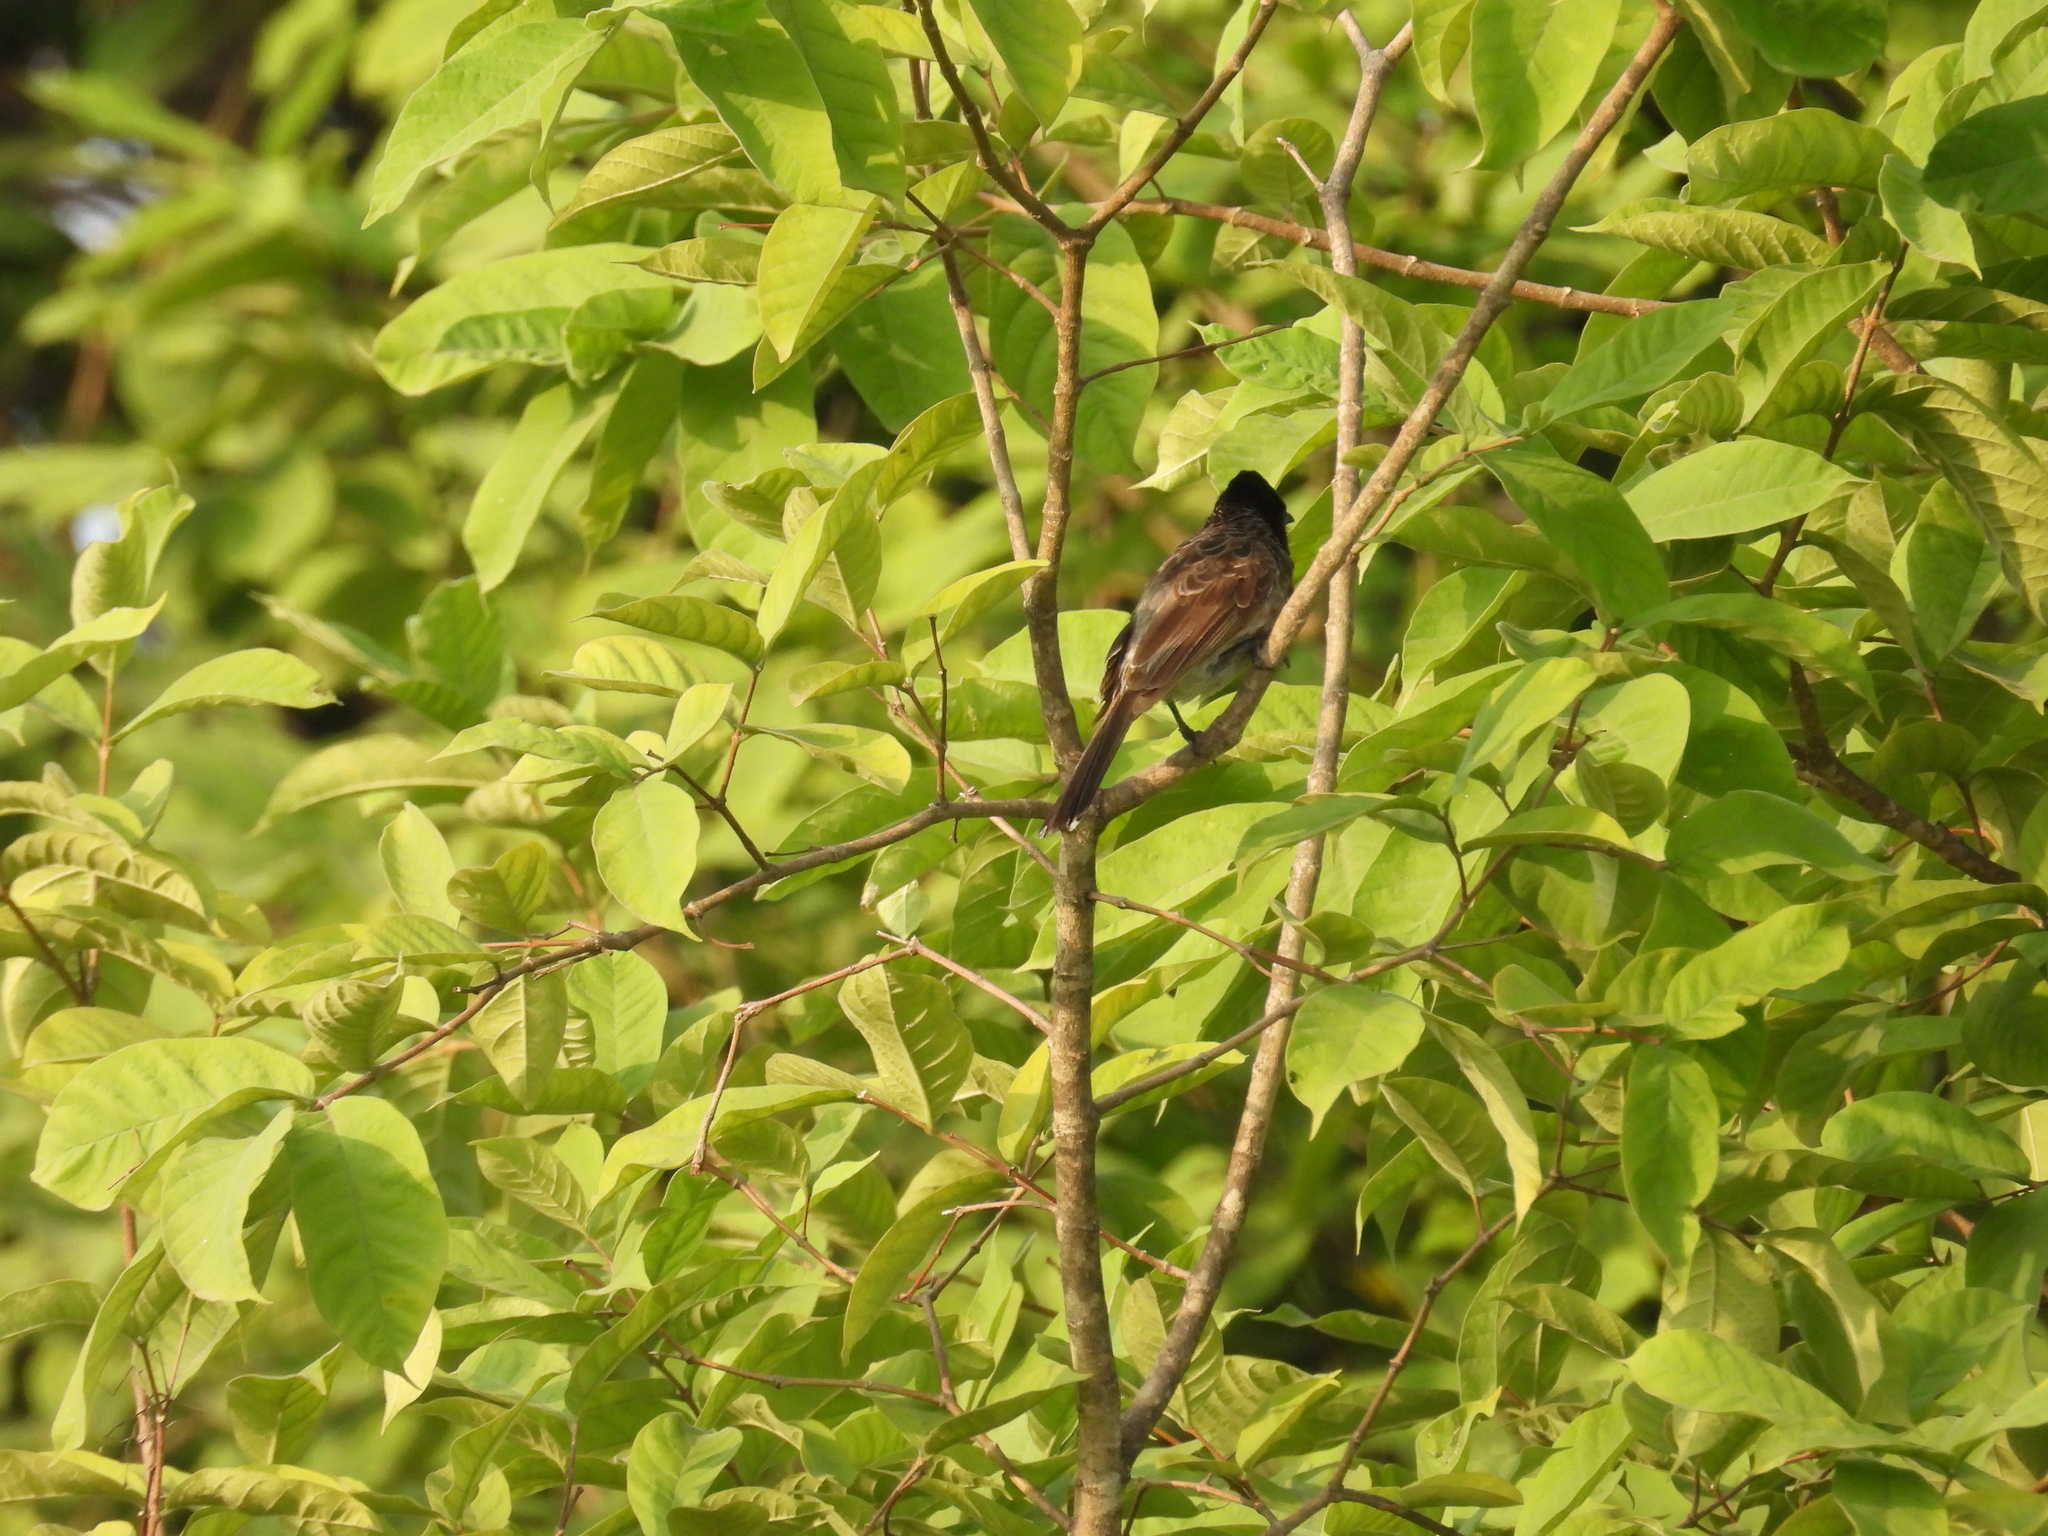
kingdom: Animalia
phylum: Chordata
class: Aves
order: Passeriformes
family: Pycnonotidae
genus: Pycnonotus
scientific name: Pycnonotus cafer
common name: Red-vented bulbul
